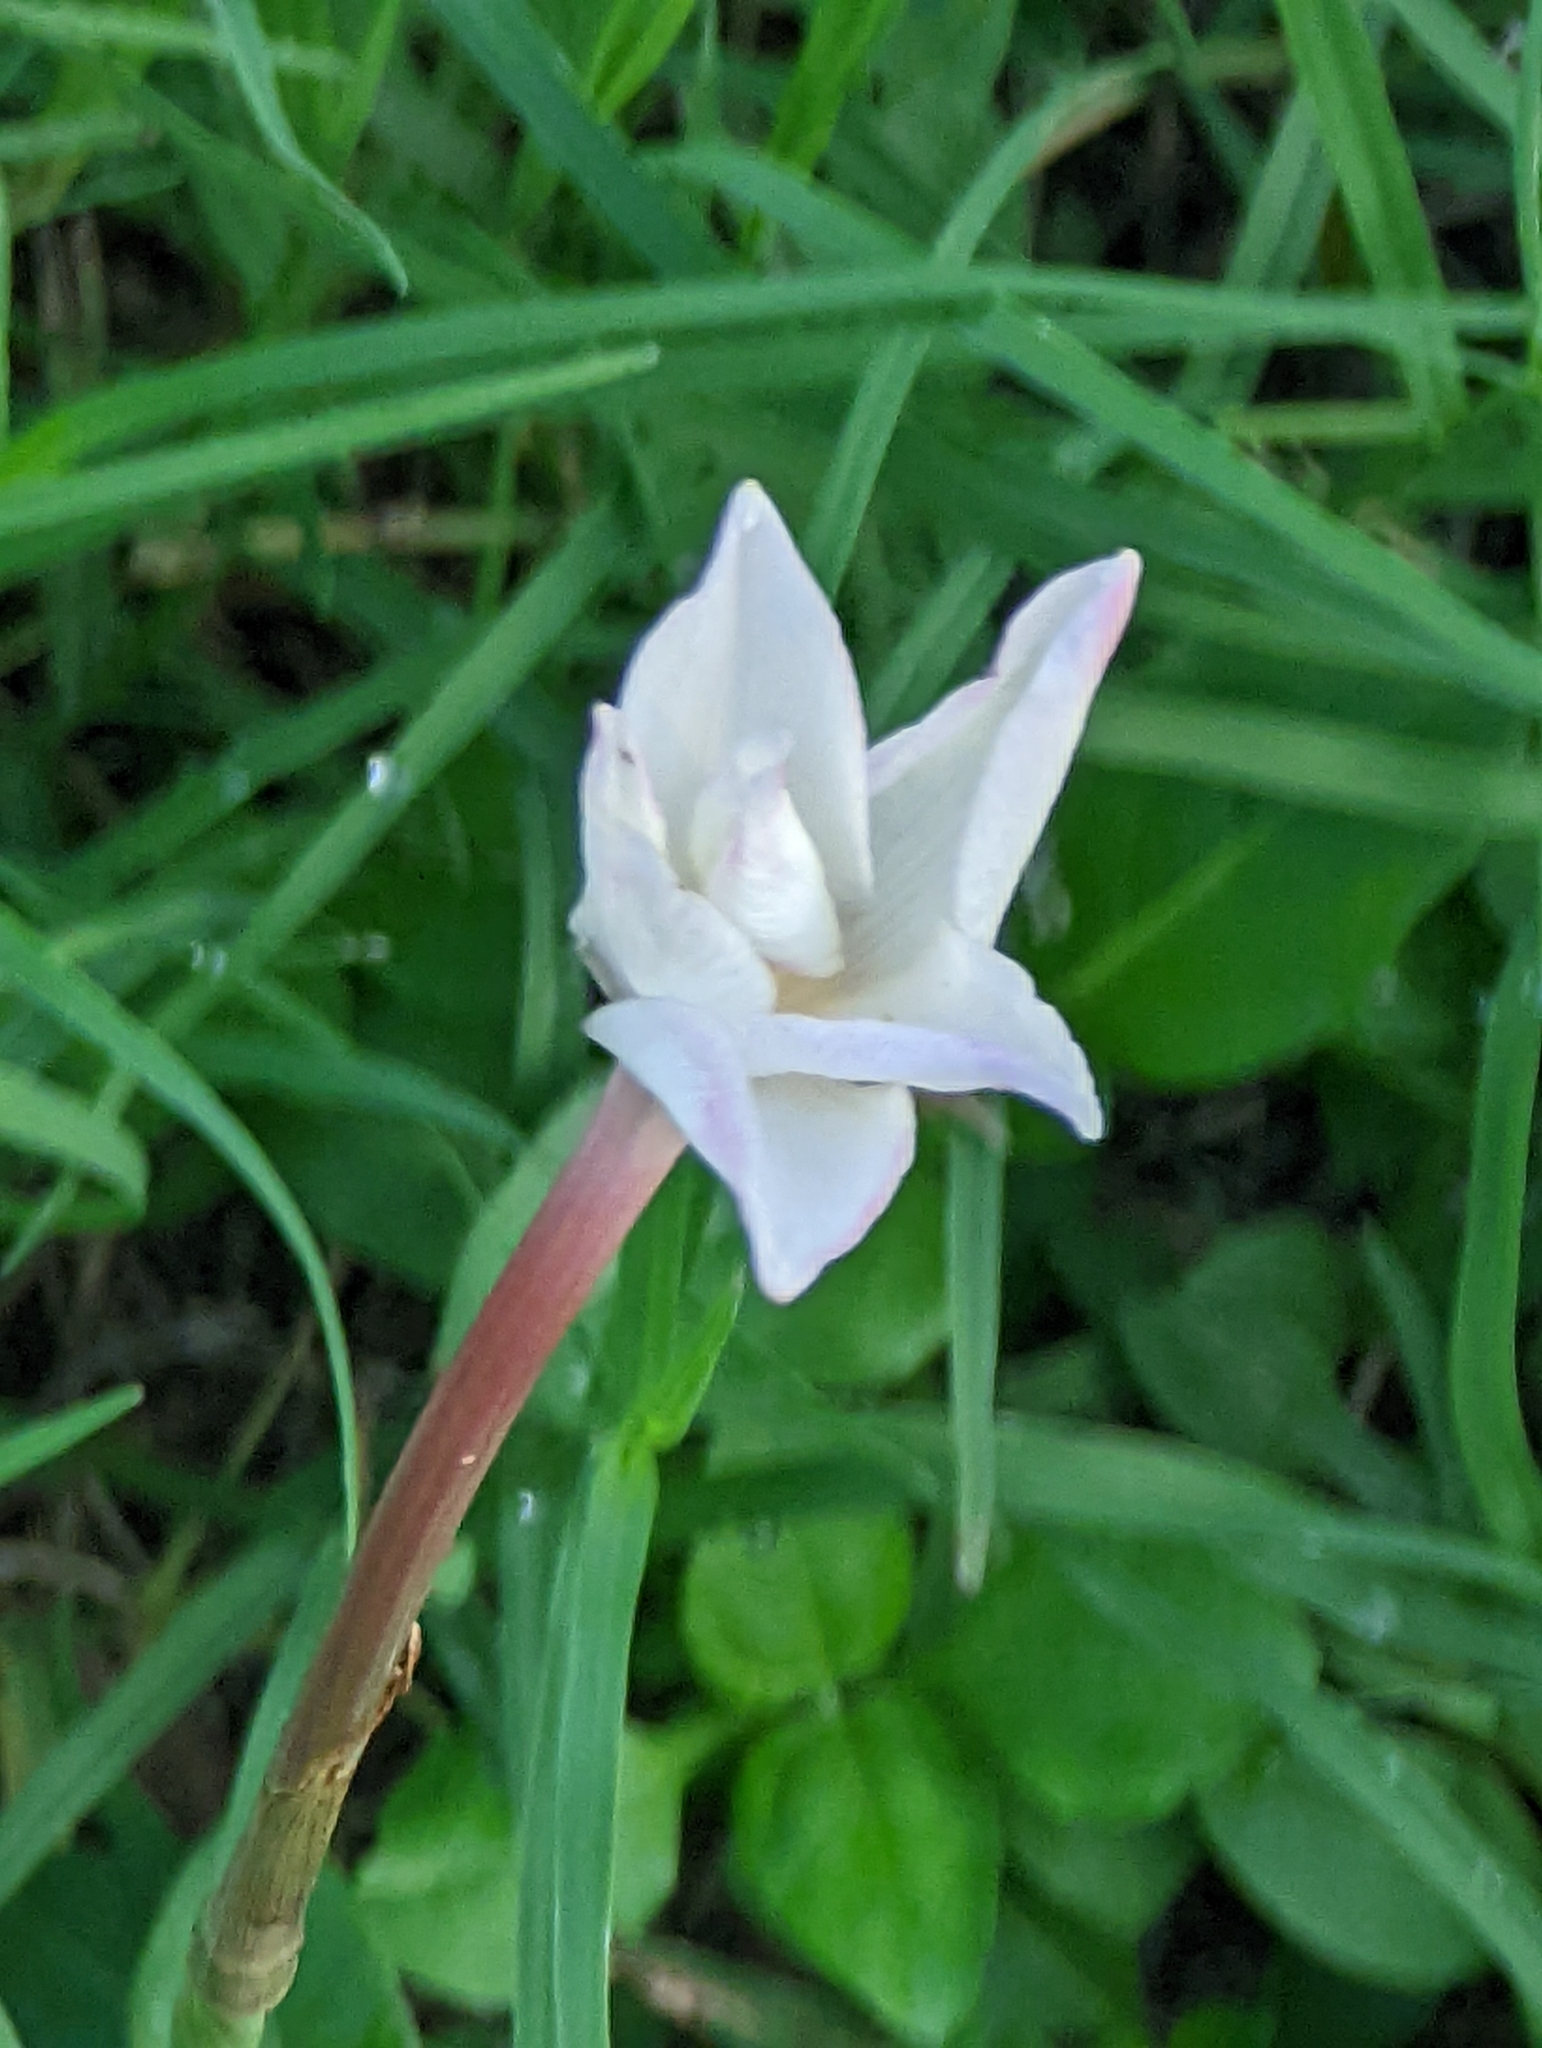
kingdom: Plantae
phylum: Tracheophyta
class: Liliopsida
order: Asparagales
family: Amaryllidaceae
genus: Zephyranthes
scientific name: Zephyranthes chlorosolen
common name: Evening rain-lily
